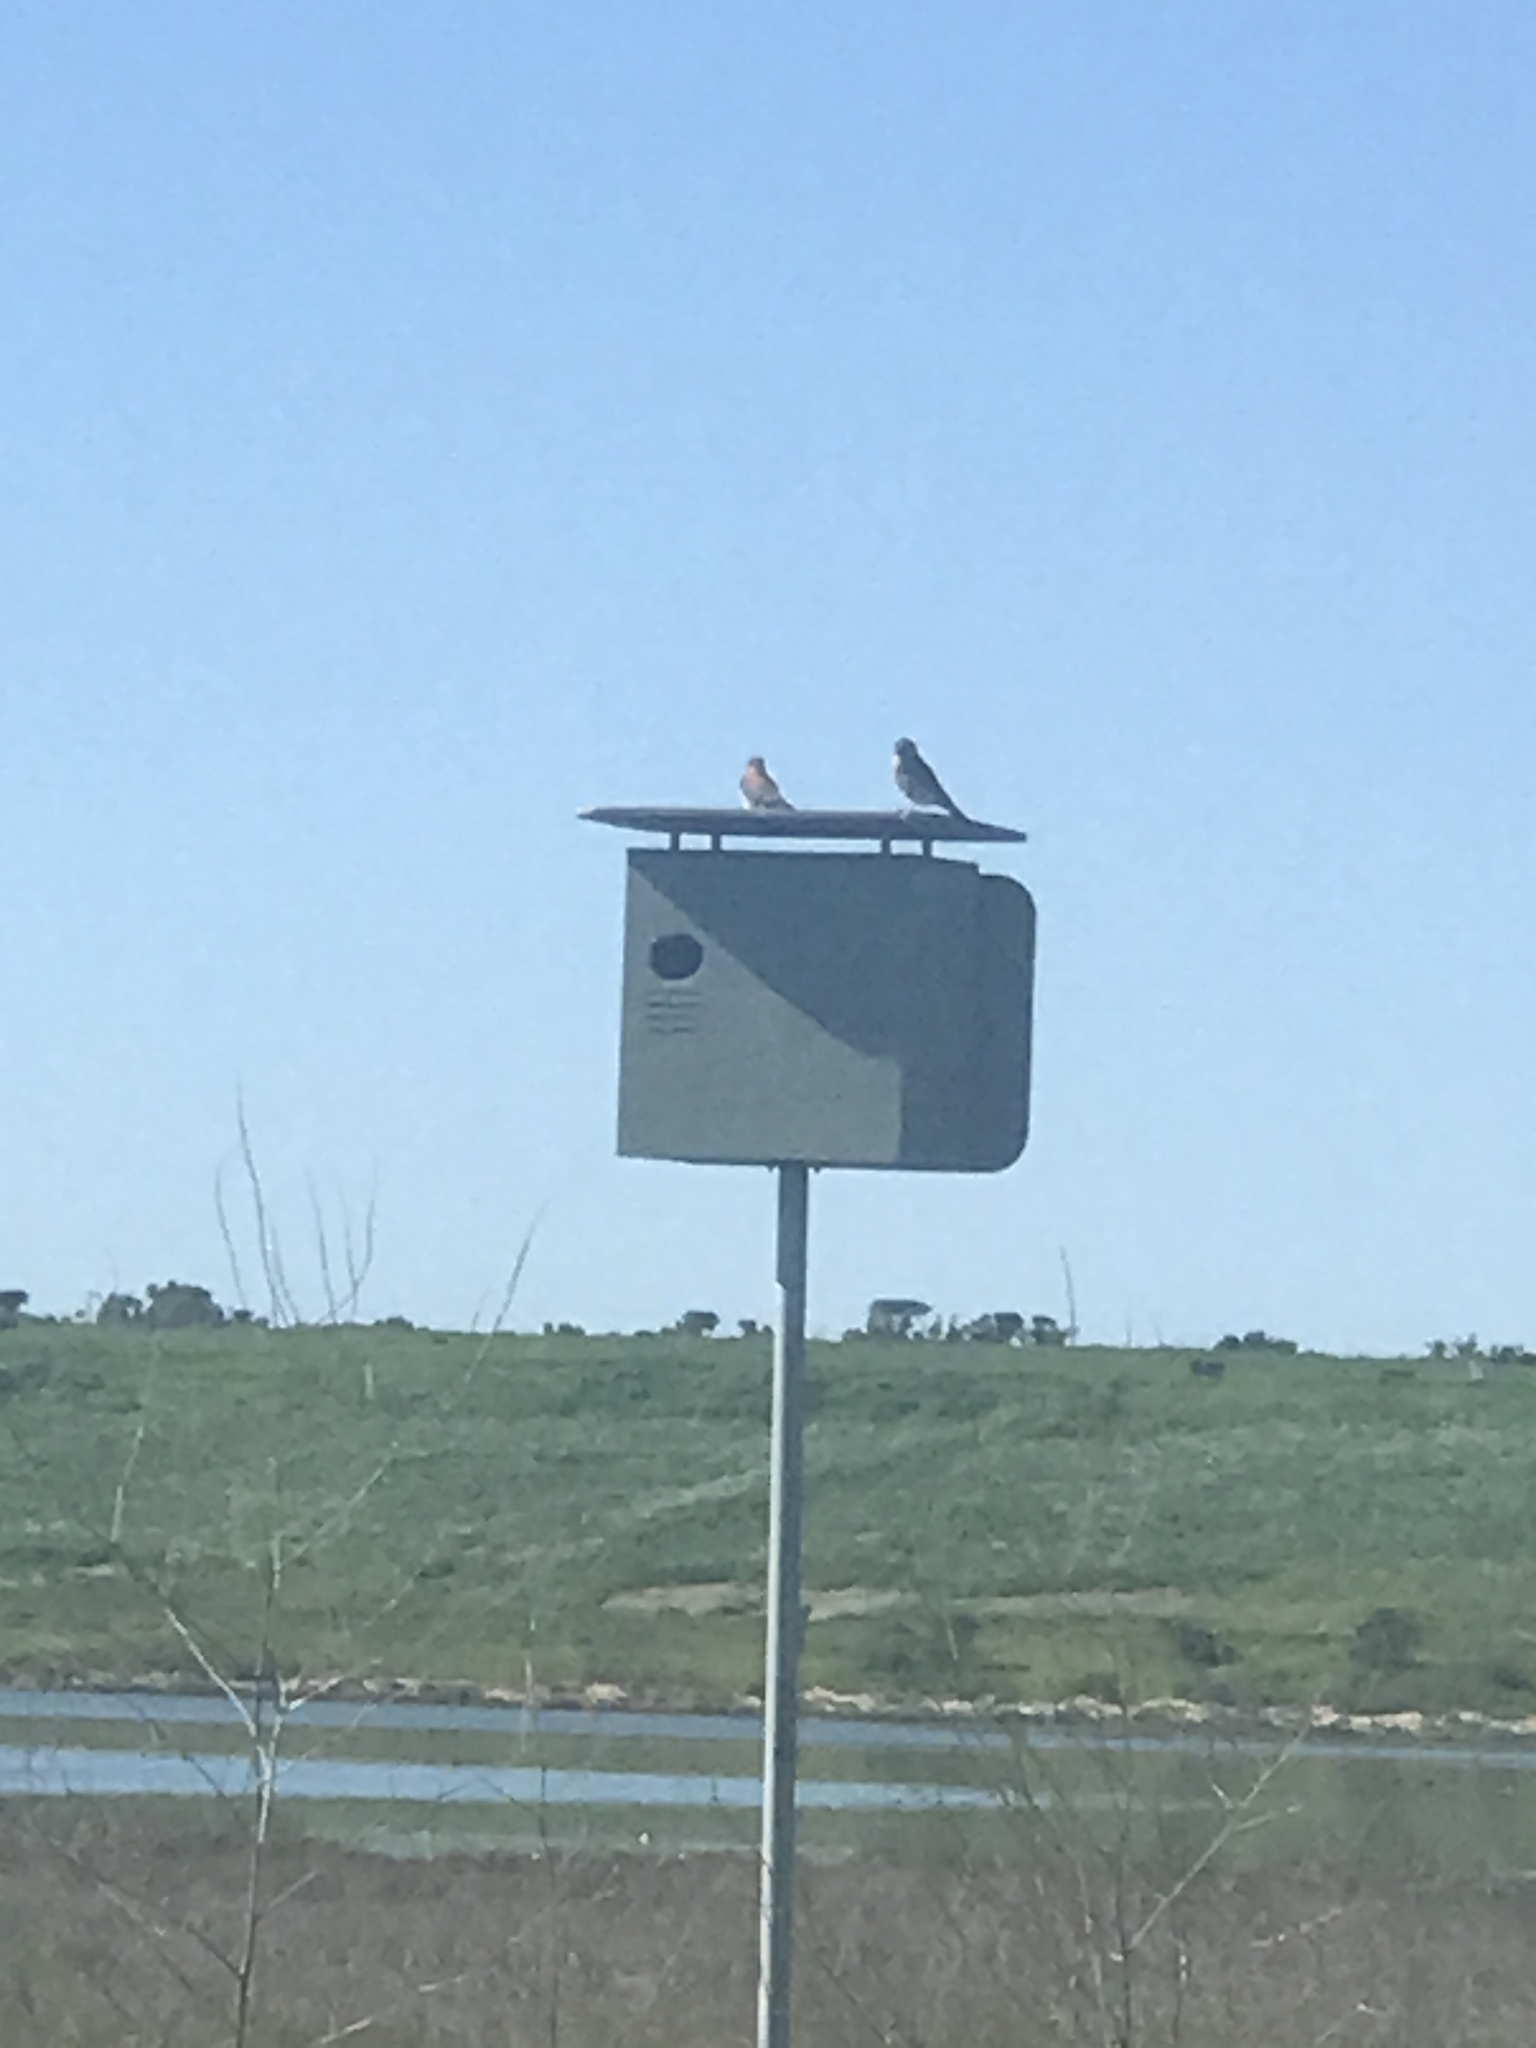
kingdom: Animalia
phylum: Chordata
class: Aves
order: Falconiformes
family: Falconidae
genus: Falco
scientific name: Falco sparverius
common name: American kestrel
